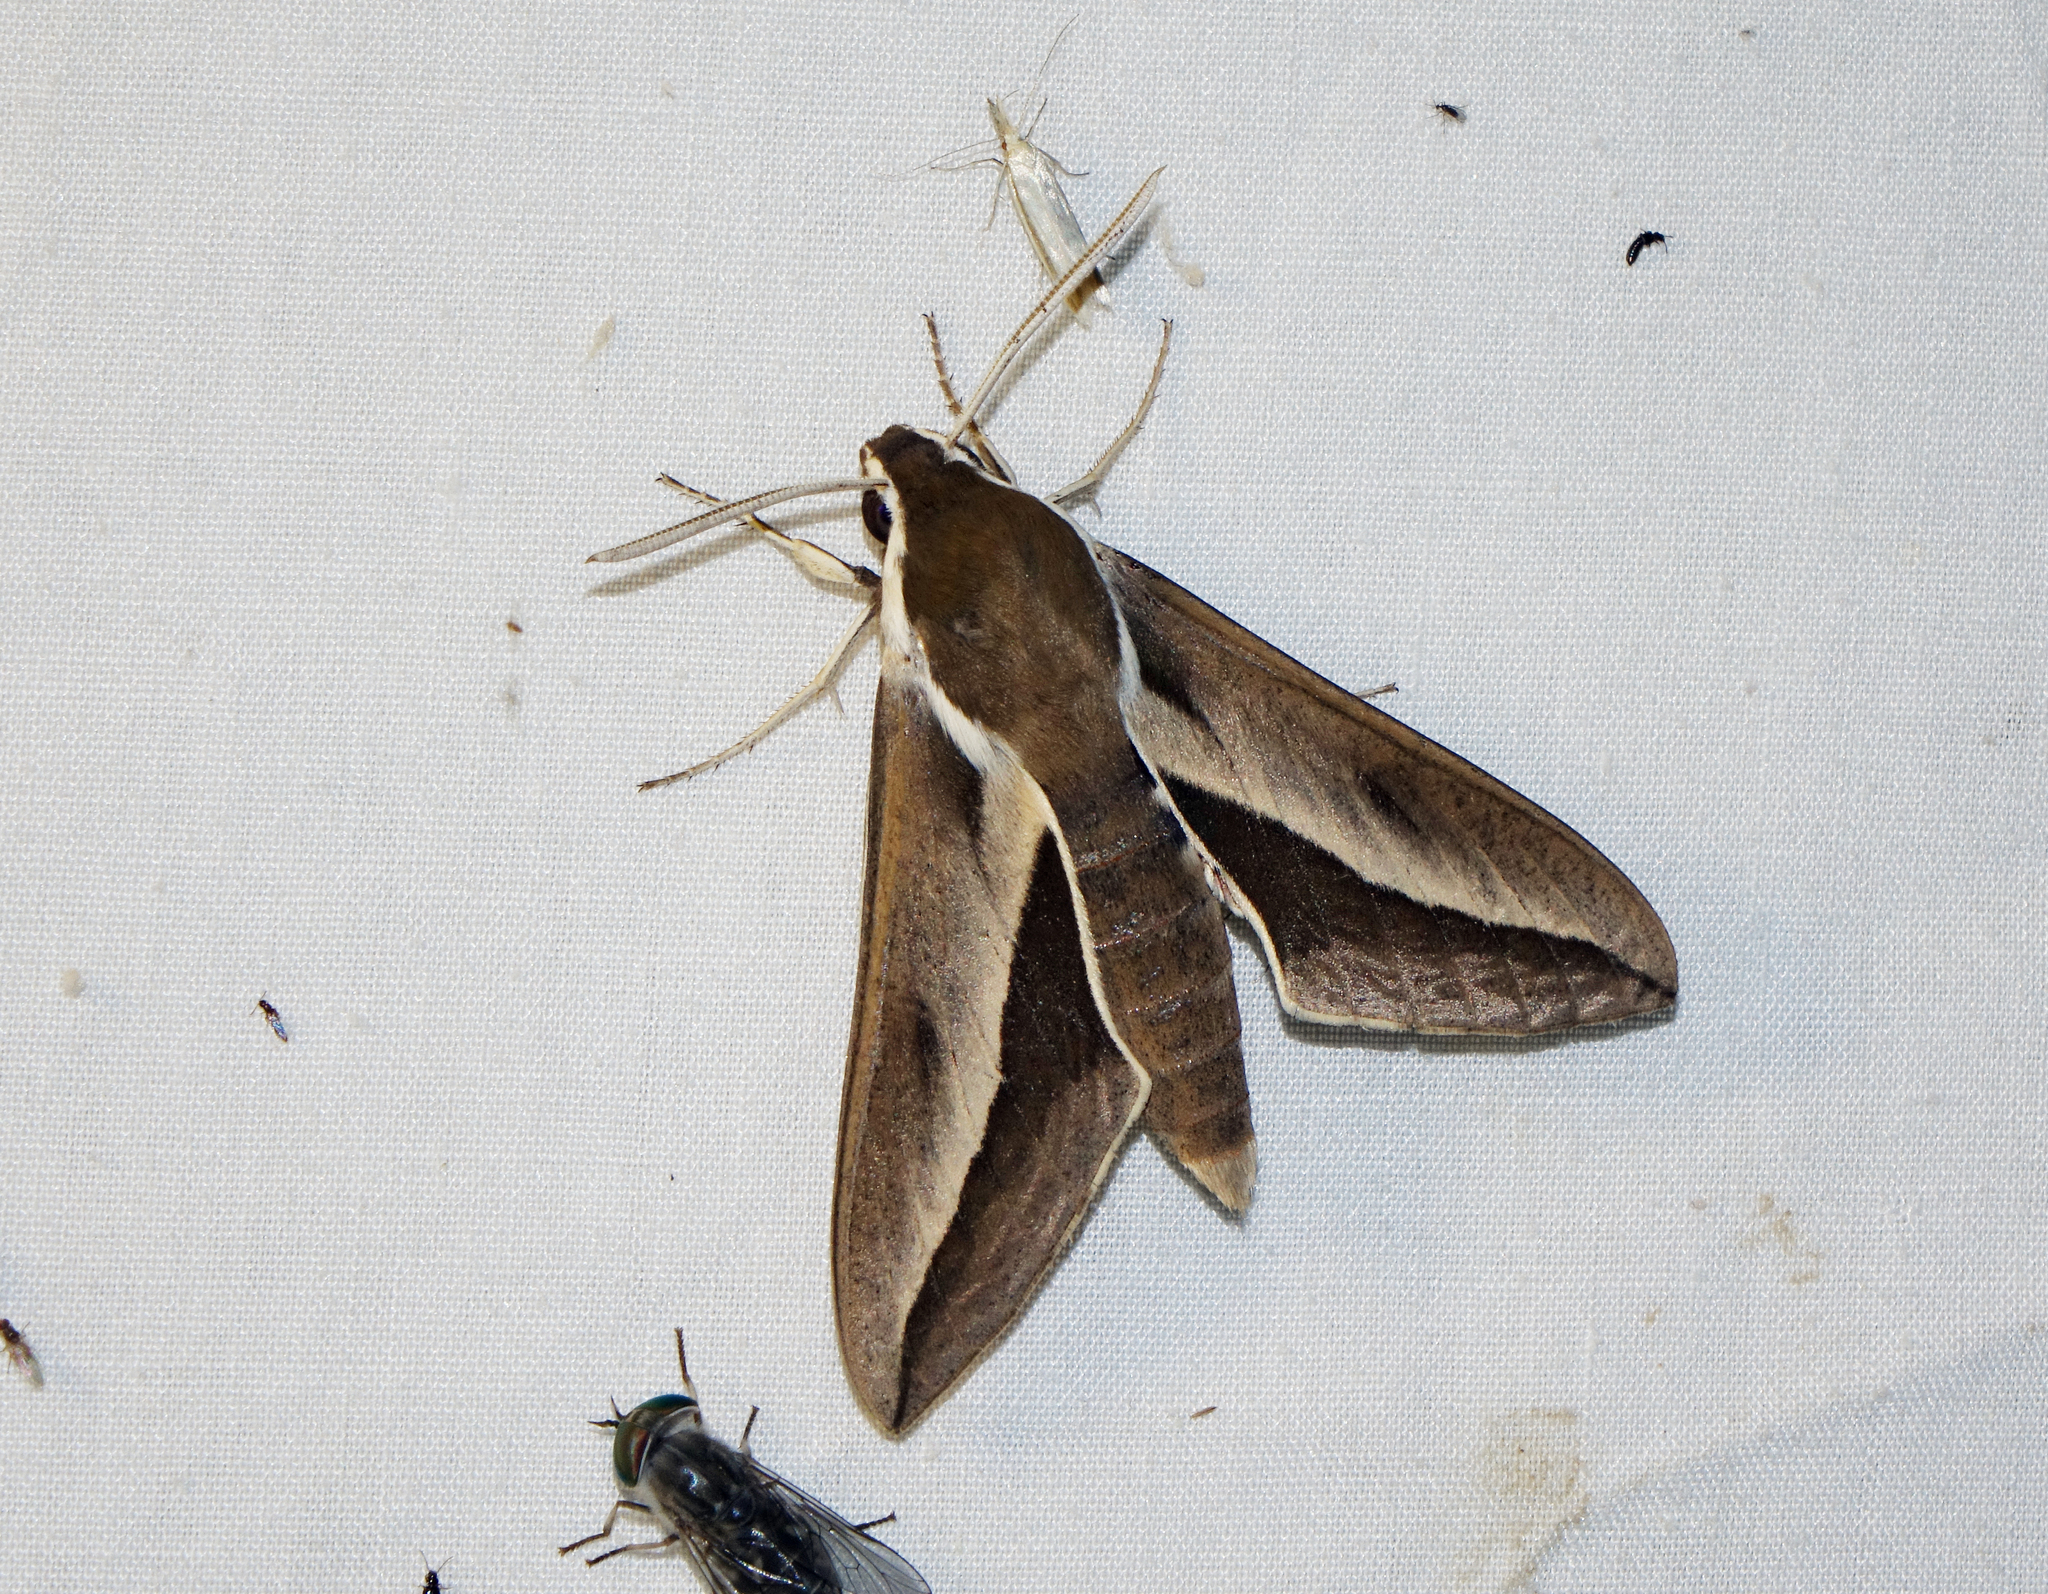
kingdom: Animalia
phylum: Arthropoda
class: Insecta
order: Lepidoptera
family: Sphingidae
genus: Hyles
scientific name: Hyles hippophaes
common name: Seathorn hawk-moth
